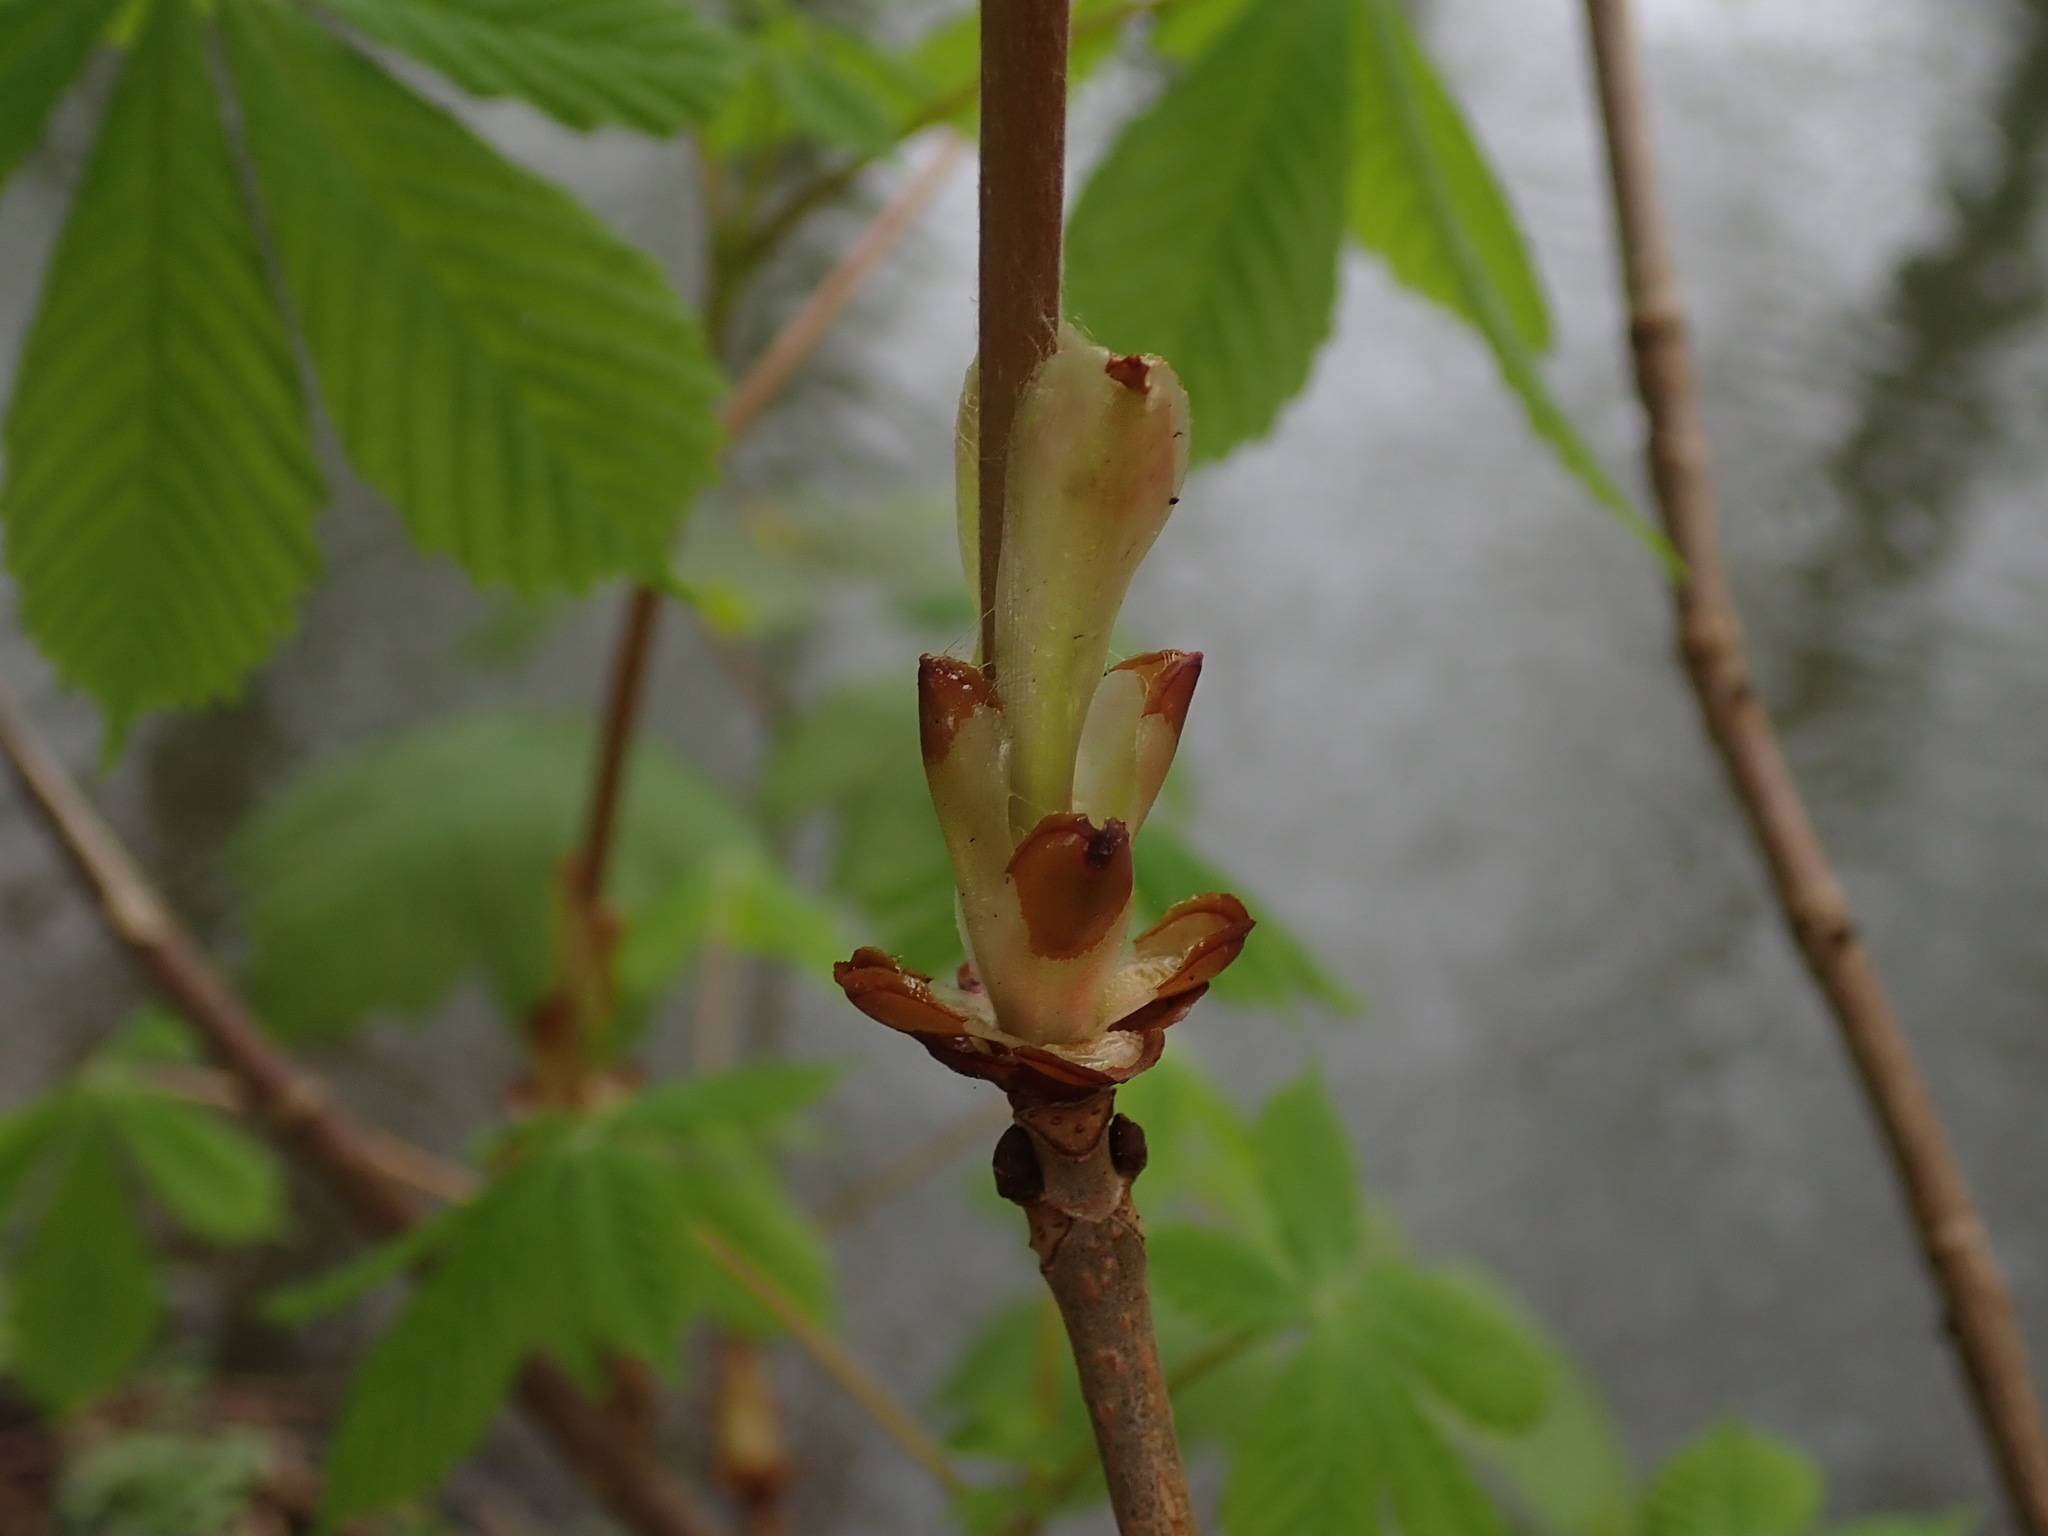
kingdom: Plantae
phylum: Tracheophyta
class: Magnoliopsida
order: Sapindales
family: Sapindaceae
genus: Aesculus
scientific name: Aesculus hippocastanum
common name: Horse-chestnut
